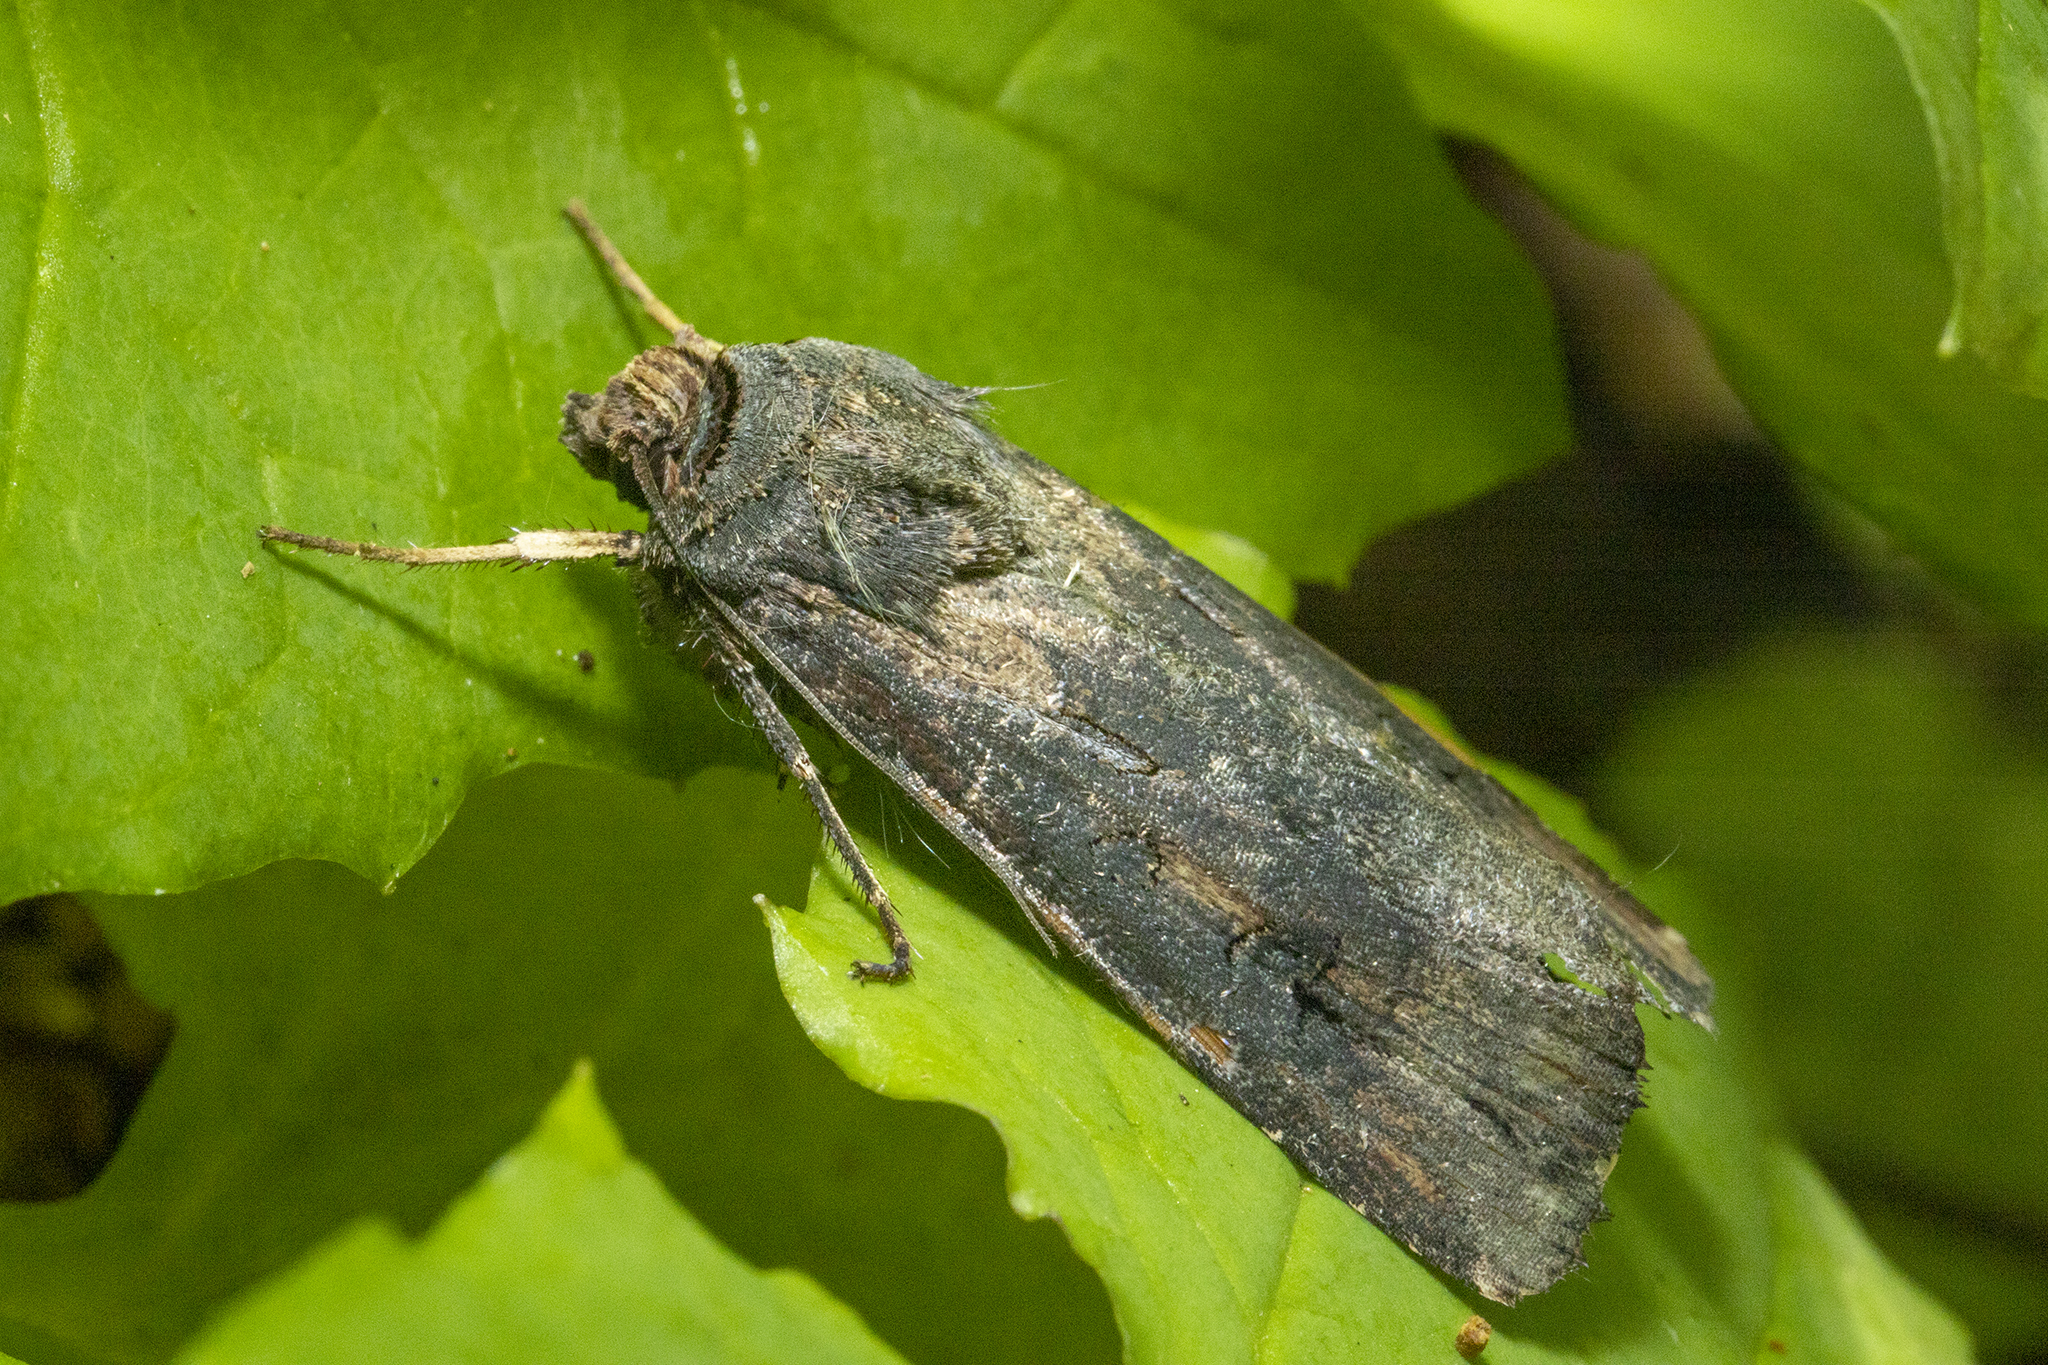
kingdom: Animalia
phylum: Arthropoda
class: Insecta
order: Lepidoptera
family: Noctuidae
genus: Agrotis
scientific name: Agrotis ipsilon
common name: Dark sword-grass
